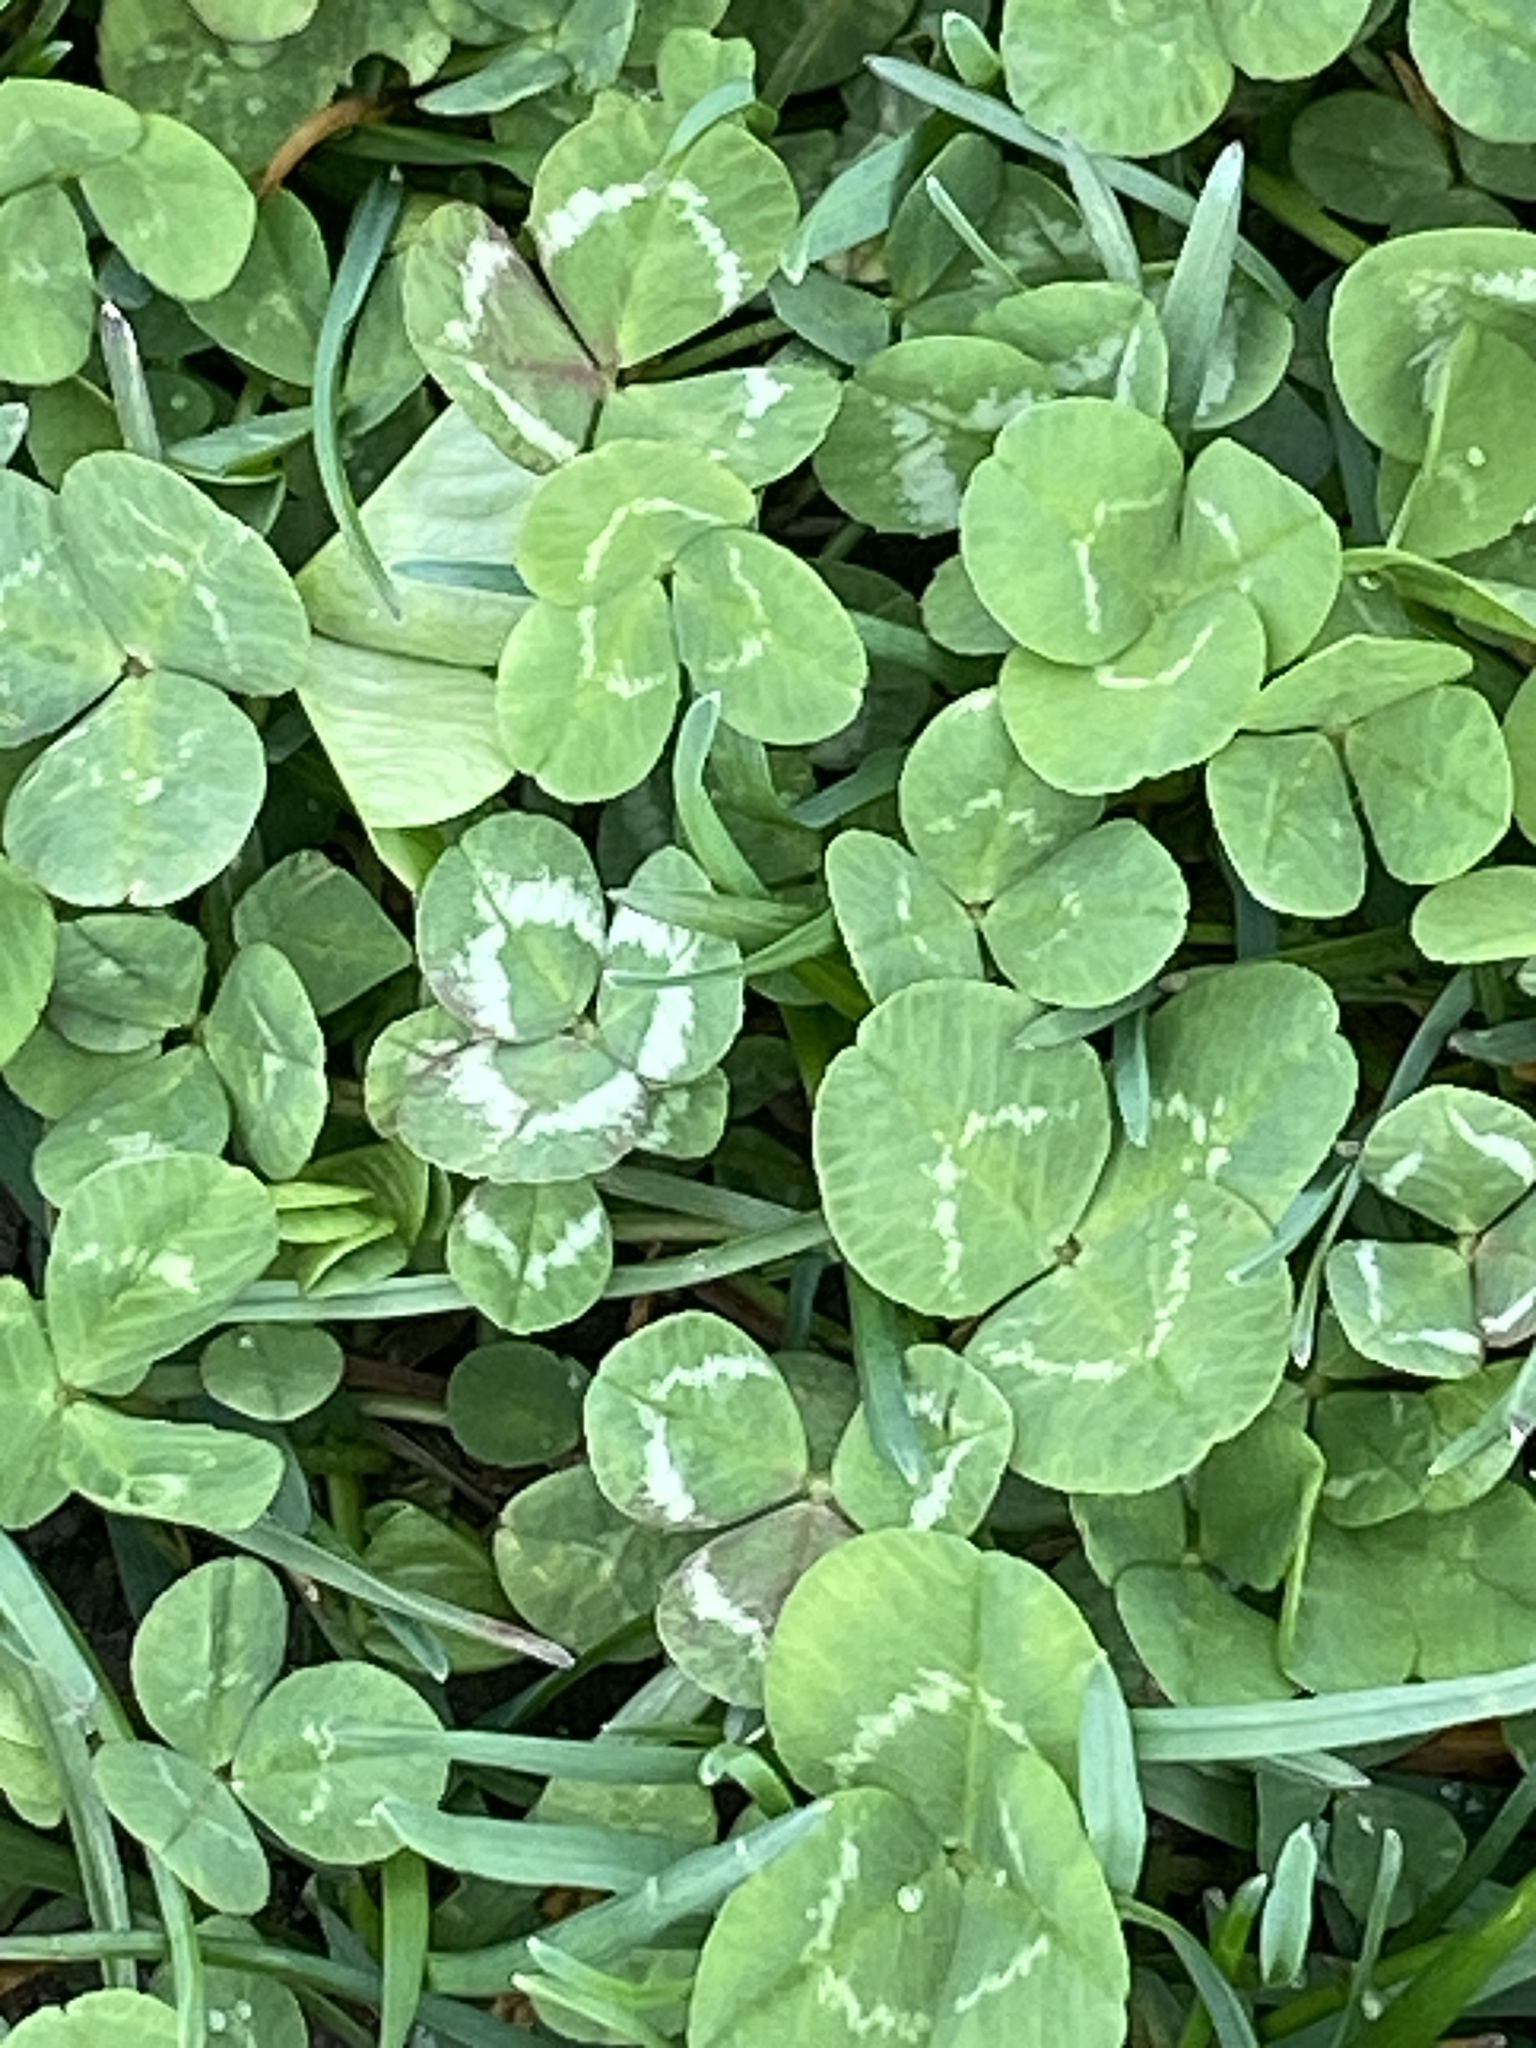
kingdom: Plantae
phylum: Tracheophyta
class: Magnoliopsida
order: Fabales
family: Fabaceae
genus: Trifolium
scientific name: Trifolium repens
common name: White clover
